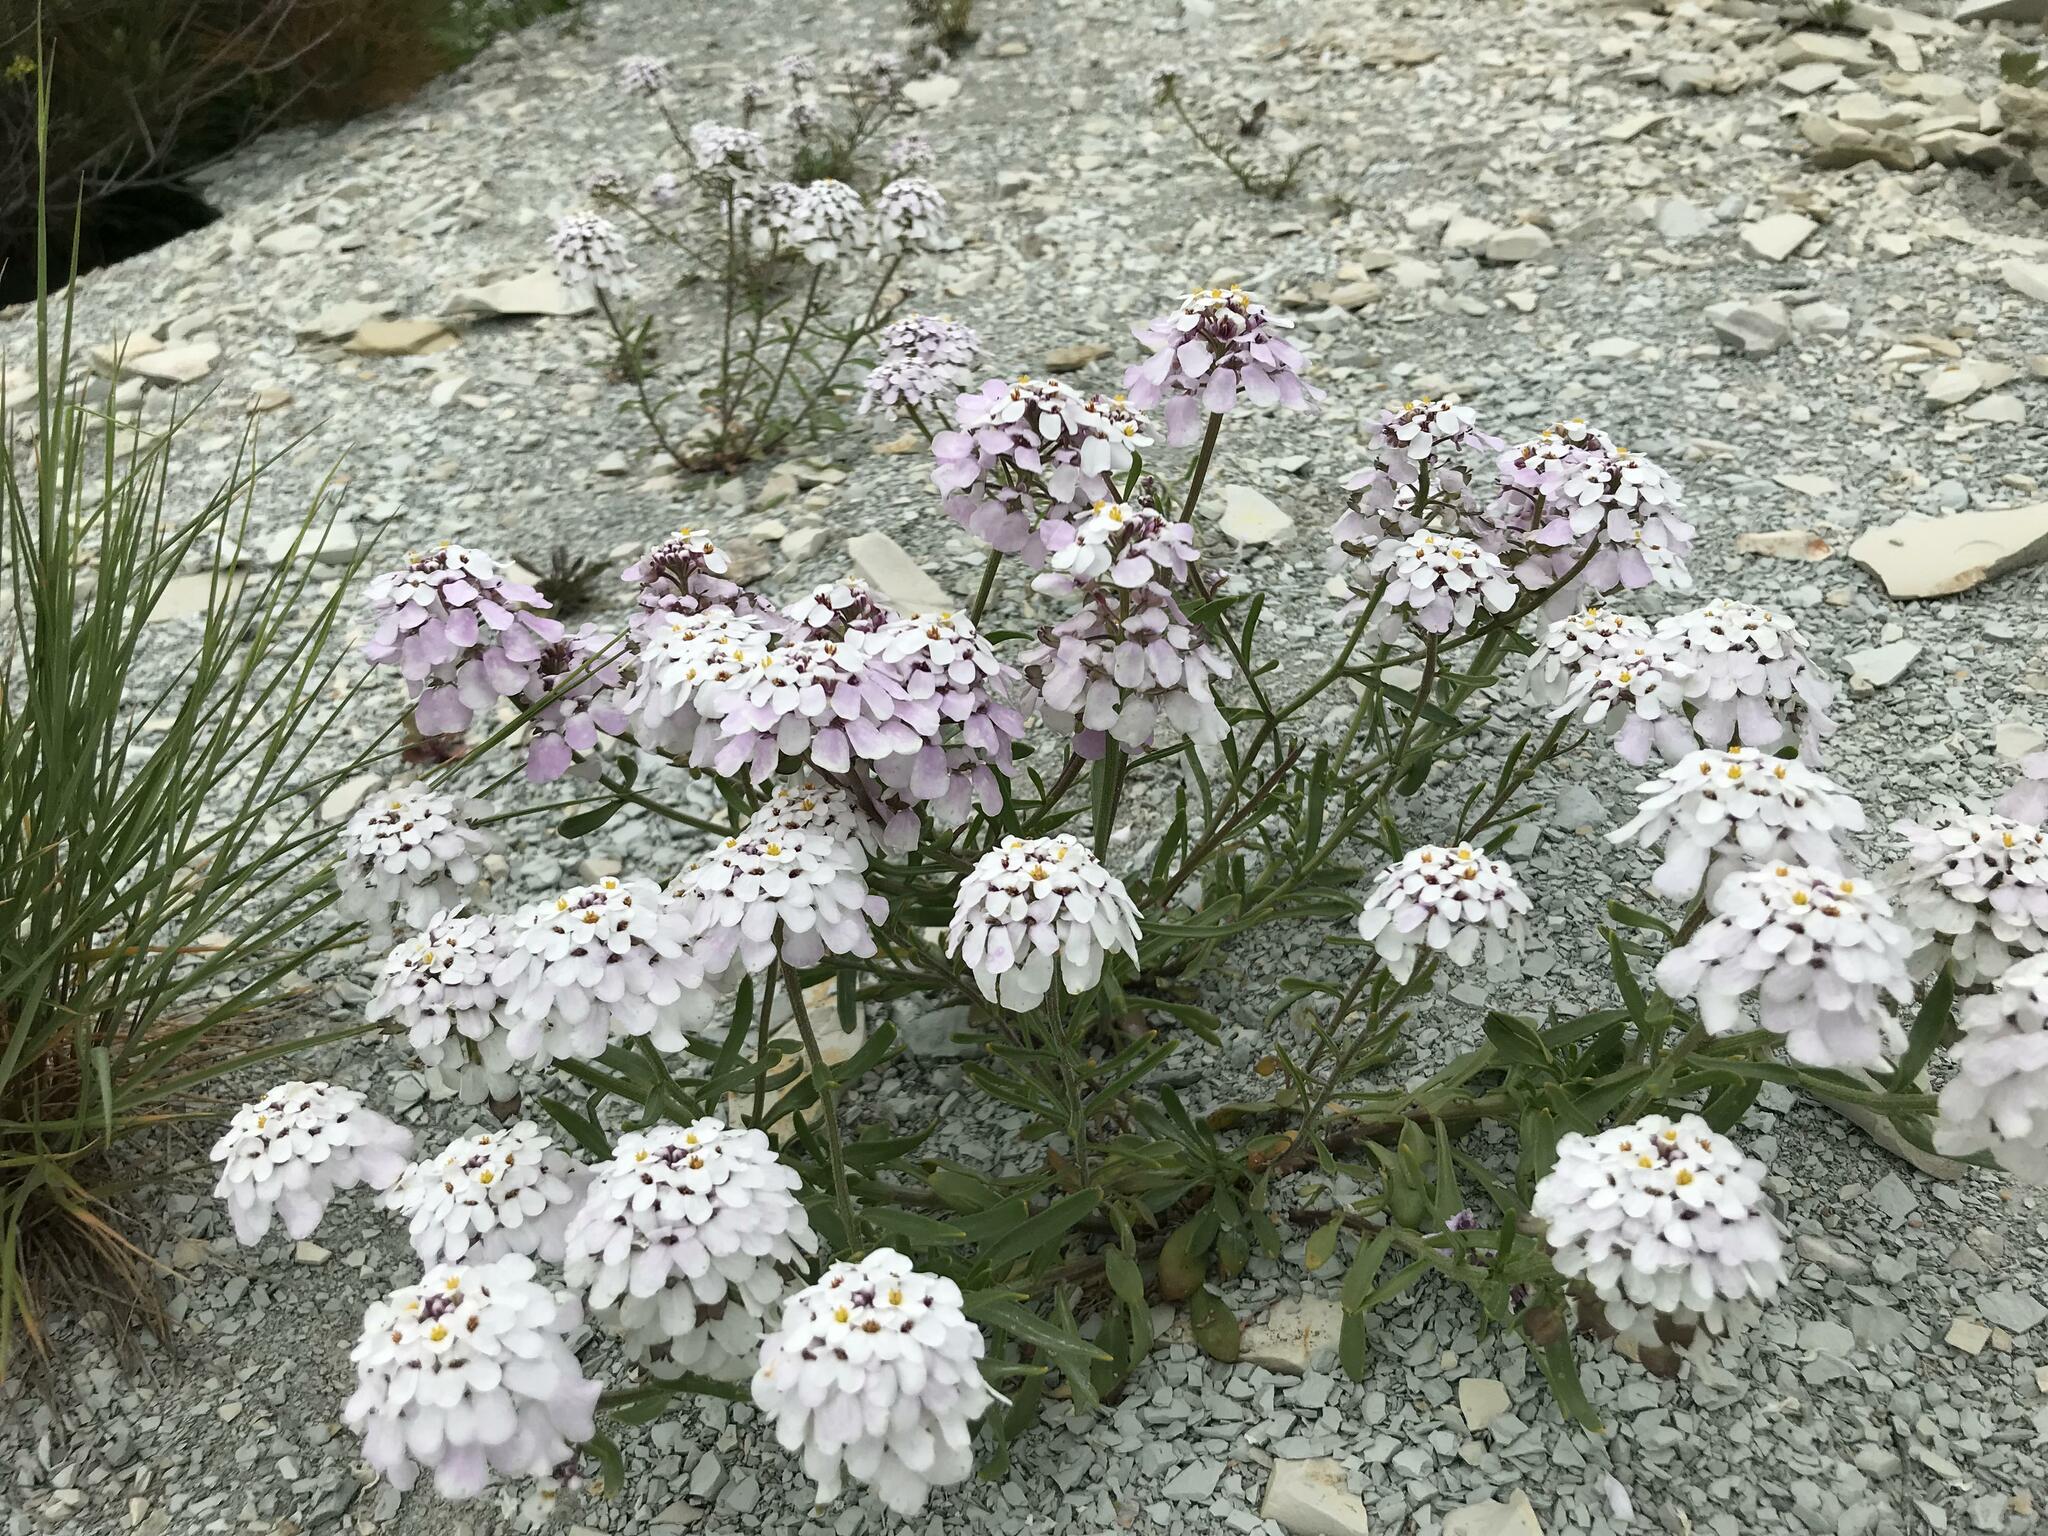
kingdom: Plantae
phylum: Tracheophyta
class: Magnoliopsida
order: Brassicales
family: Brassicaceae
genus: Iberis
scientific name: Iberis simplex
